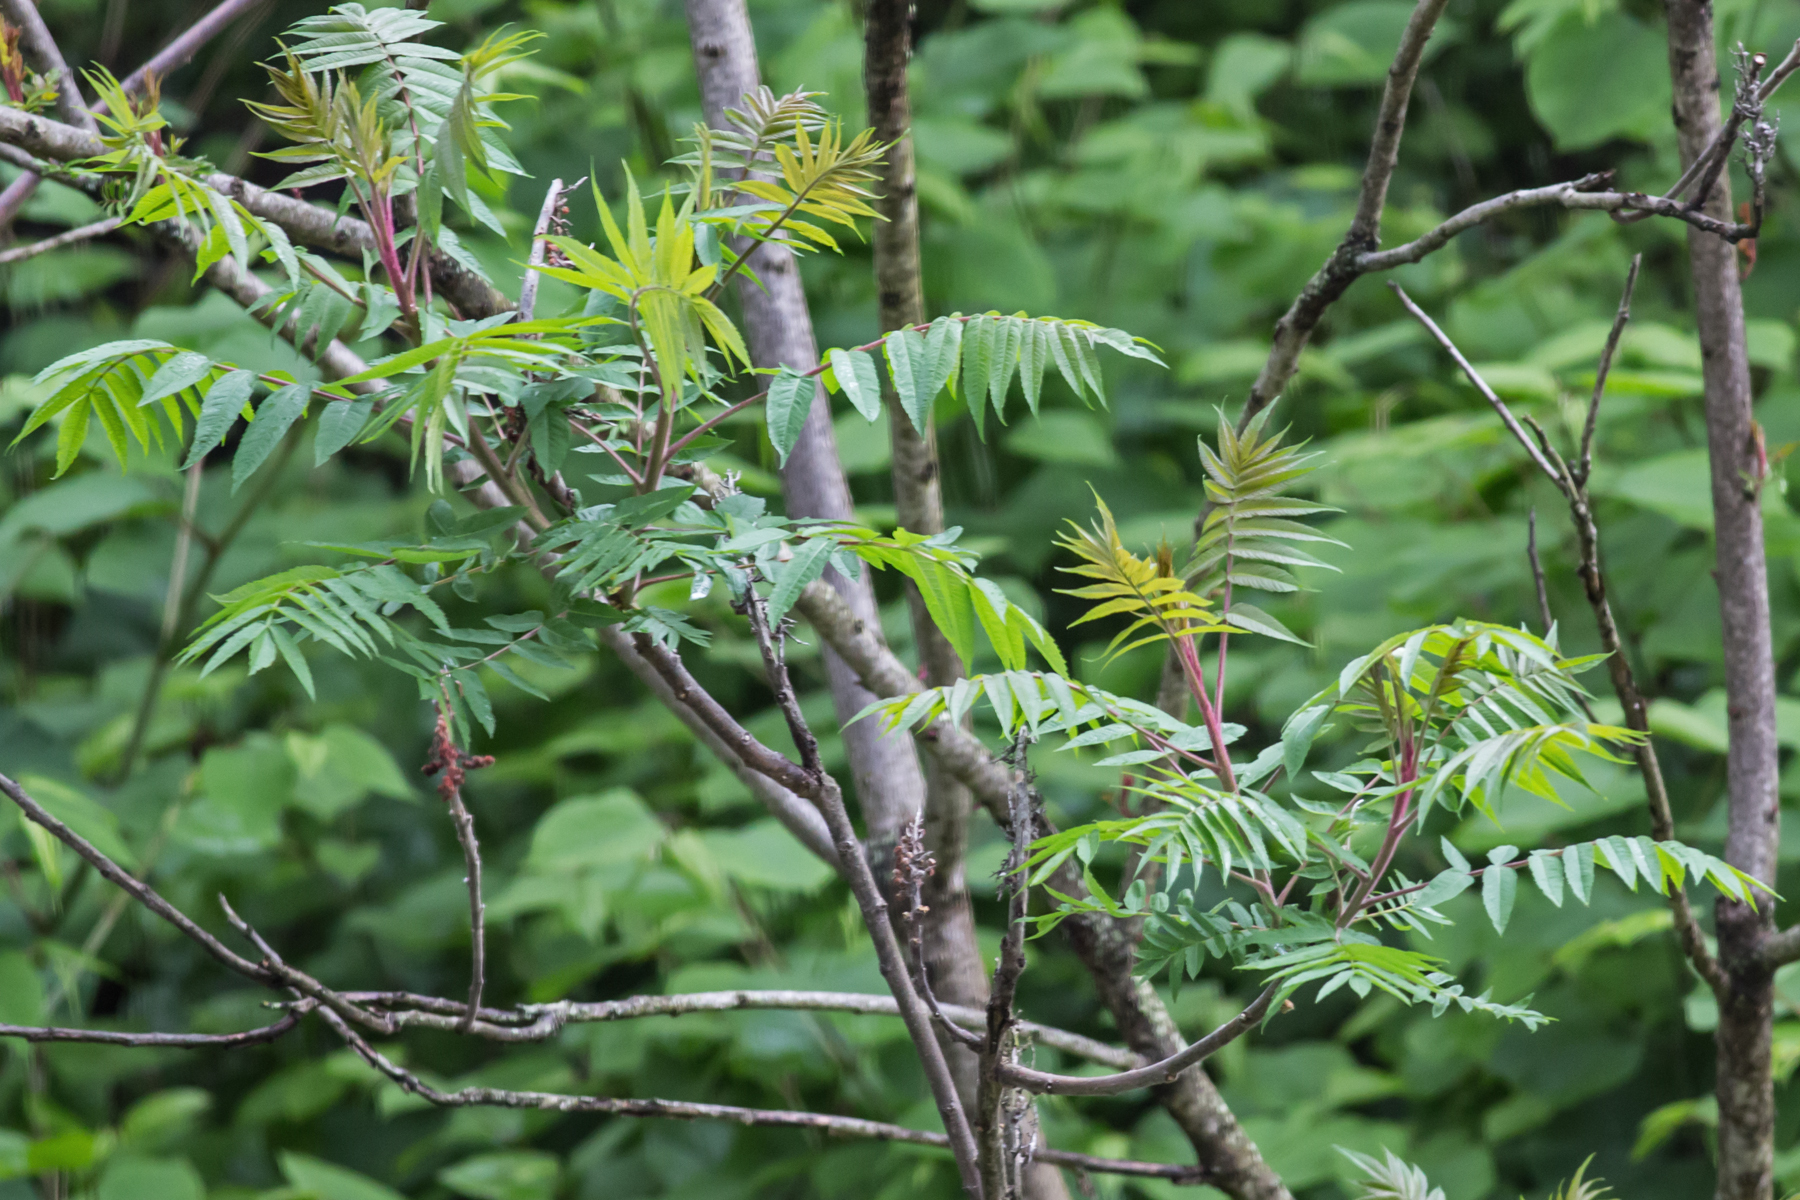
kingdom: Plantae
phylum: Tracheophyta
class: Magnoliopsida
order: Sapindales
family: Anacardiaceae
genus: Rhus
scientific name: Rhus typhina
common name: Staghorn sumac
